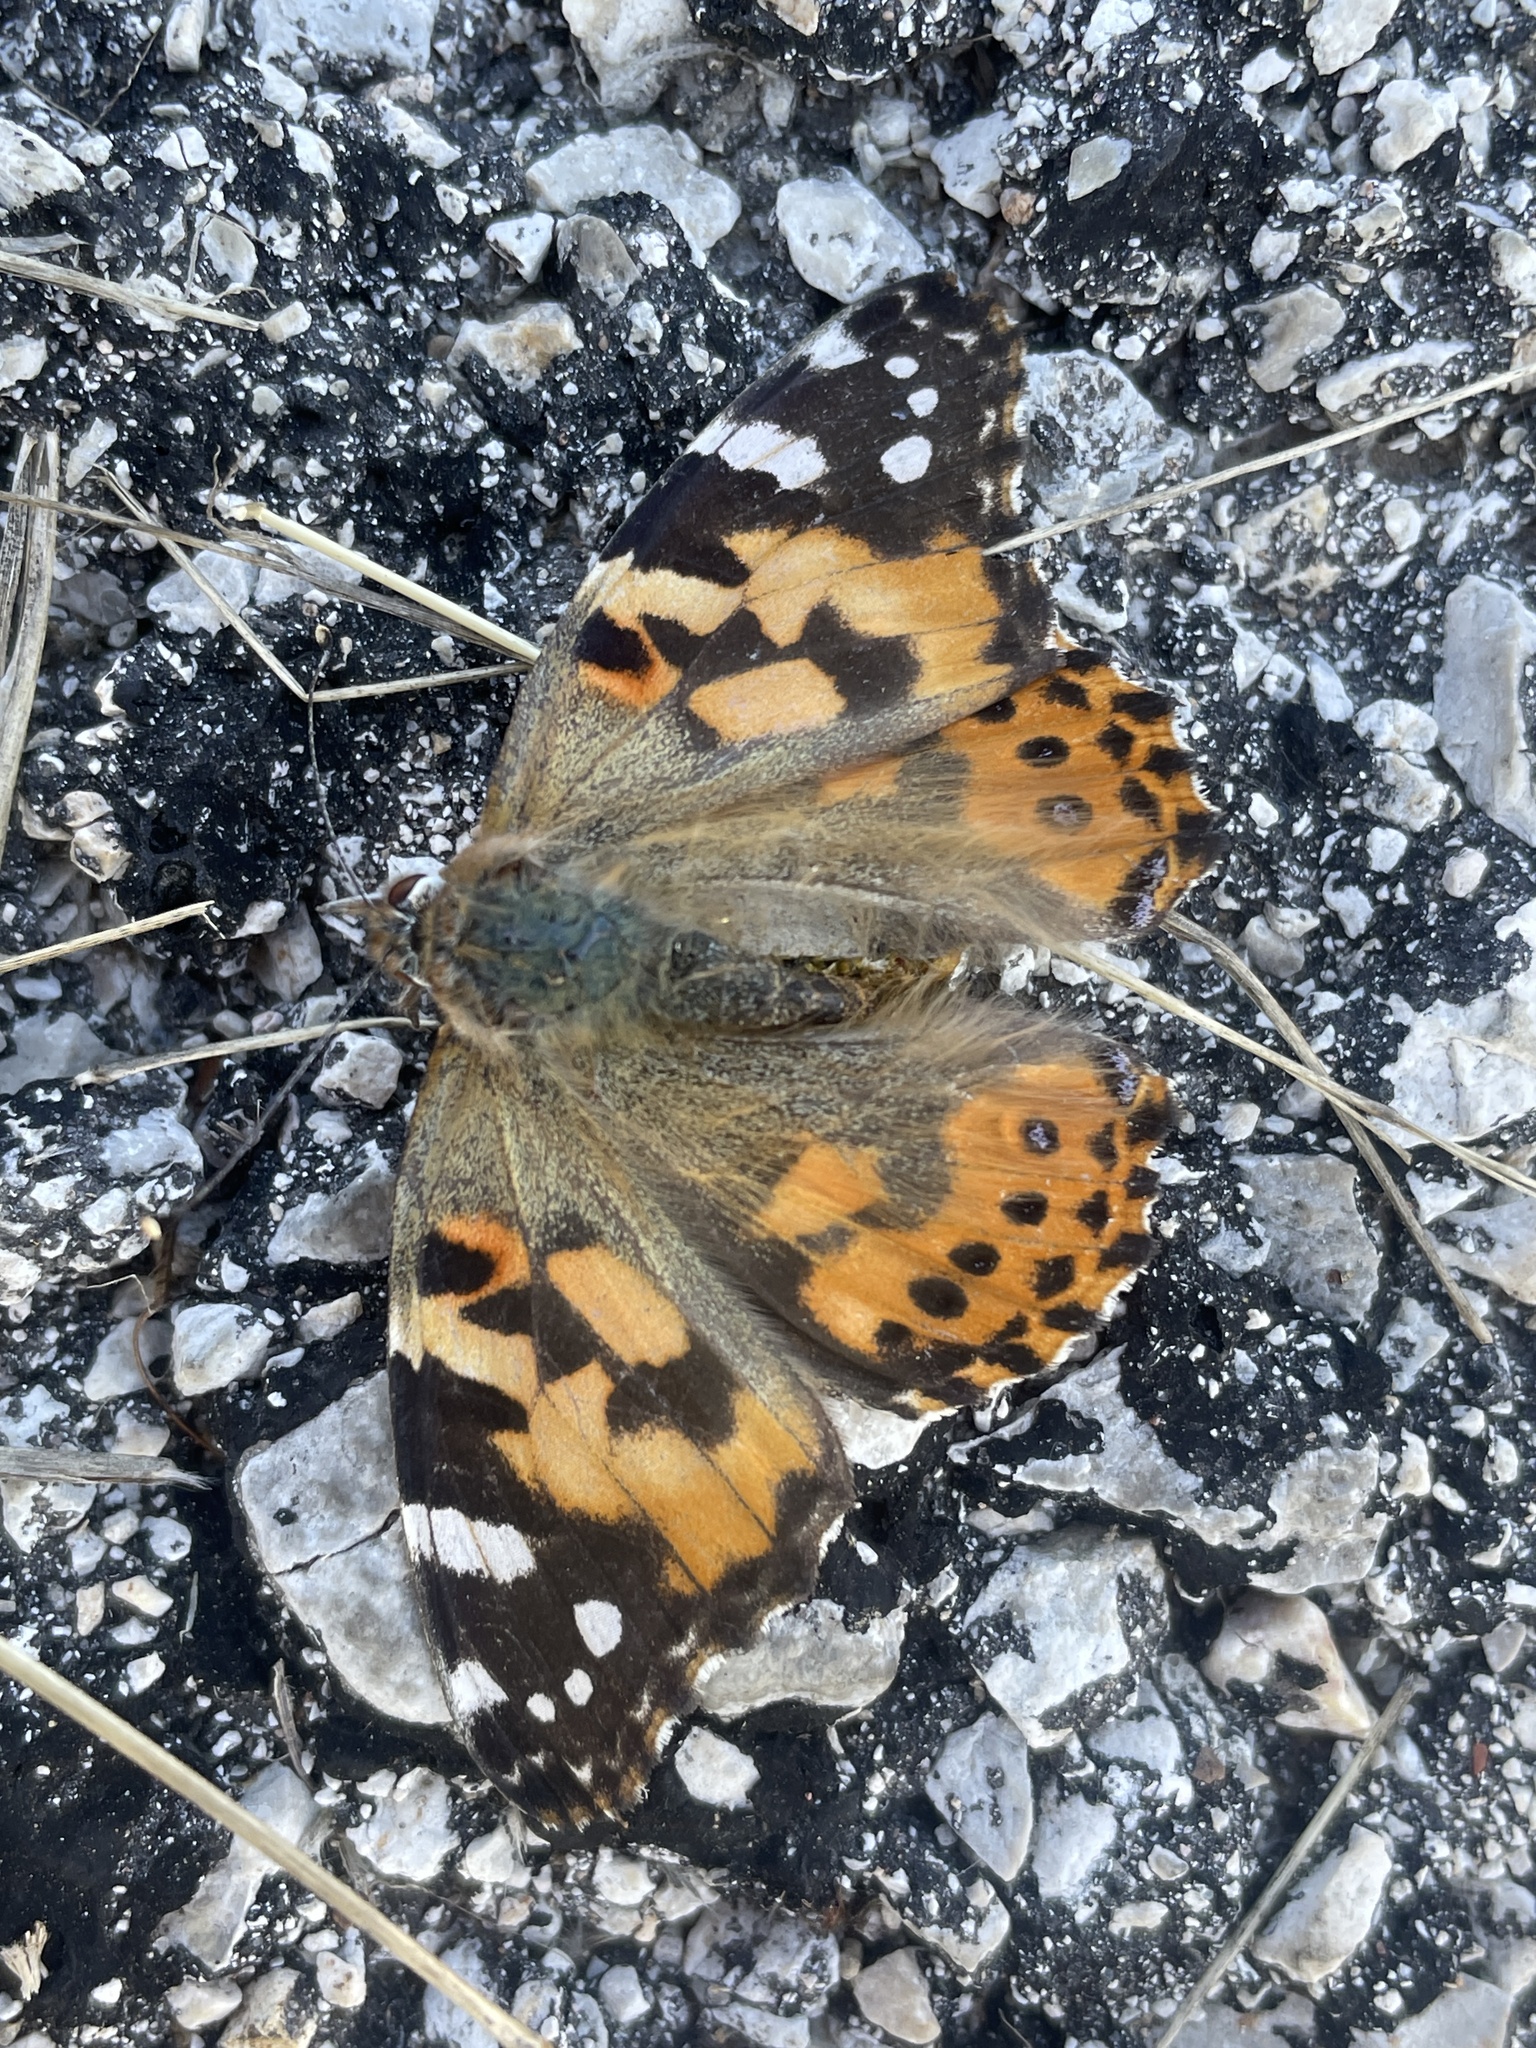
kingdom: Animalia
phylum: Arthropoda
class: Insecta
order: Lepidoptera
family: Nymphalidae
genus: Vanessa
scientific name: Vanessa cardui
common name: Painted lady
